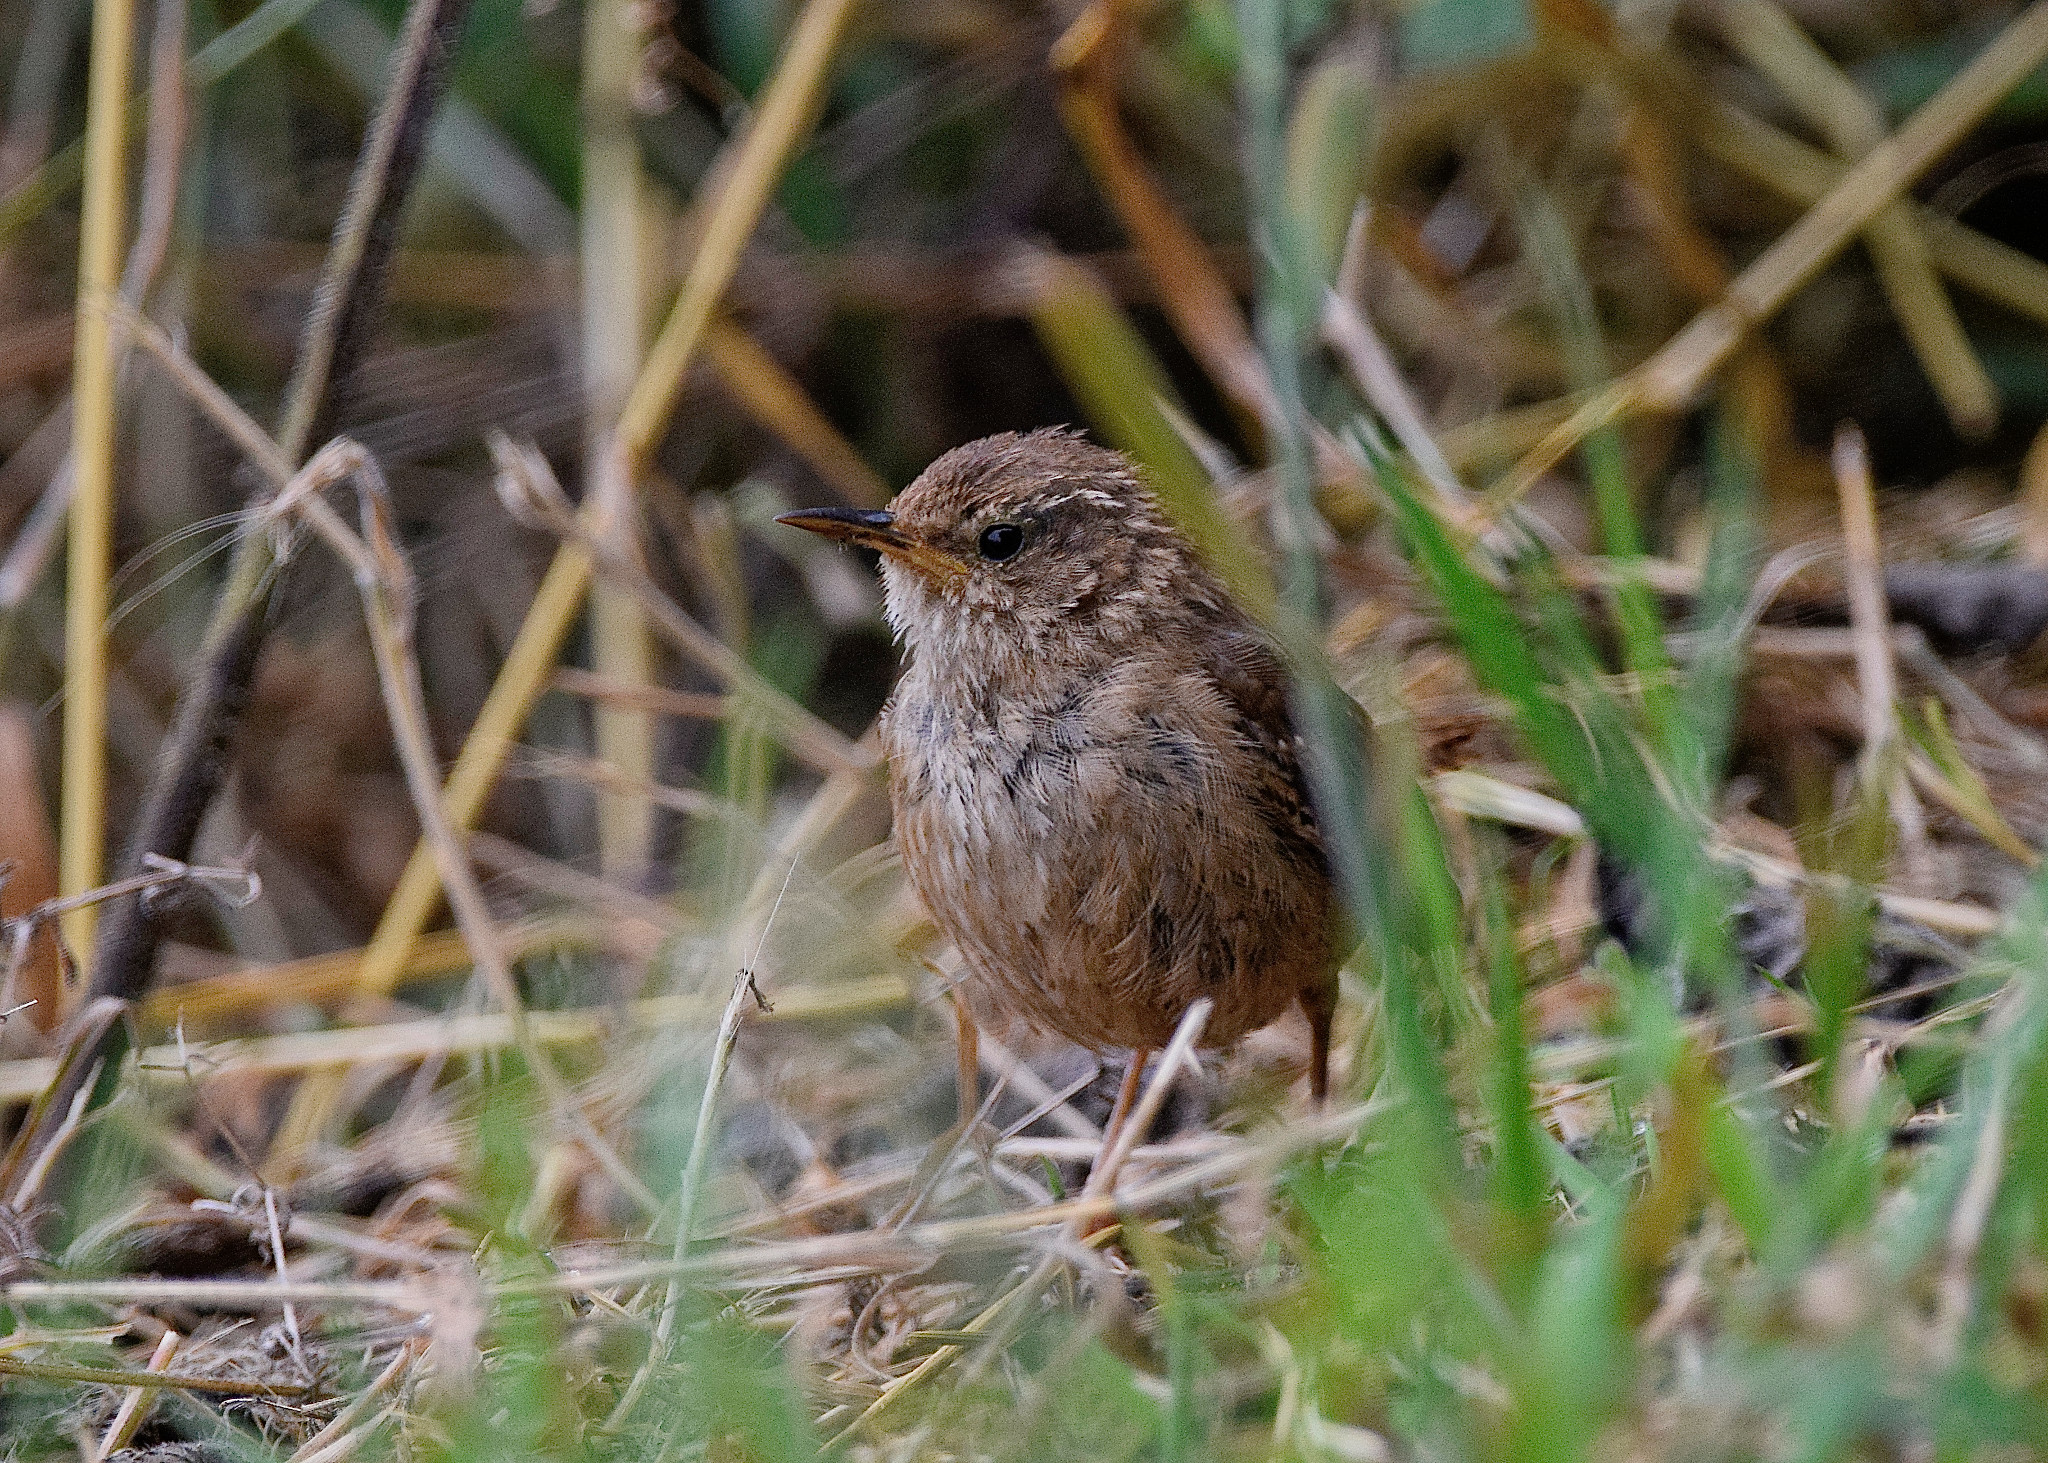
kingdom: Animalia
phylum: Chordata
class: Aves
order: Passeriformes
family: Troglodytidae
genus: Troglodytes
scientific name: Troglodytes troglodytes
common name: Eurasian wren
